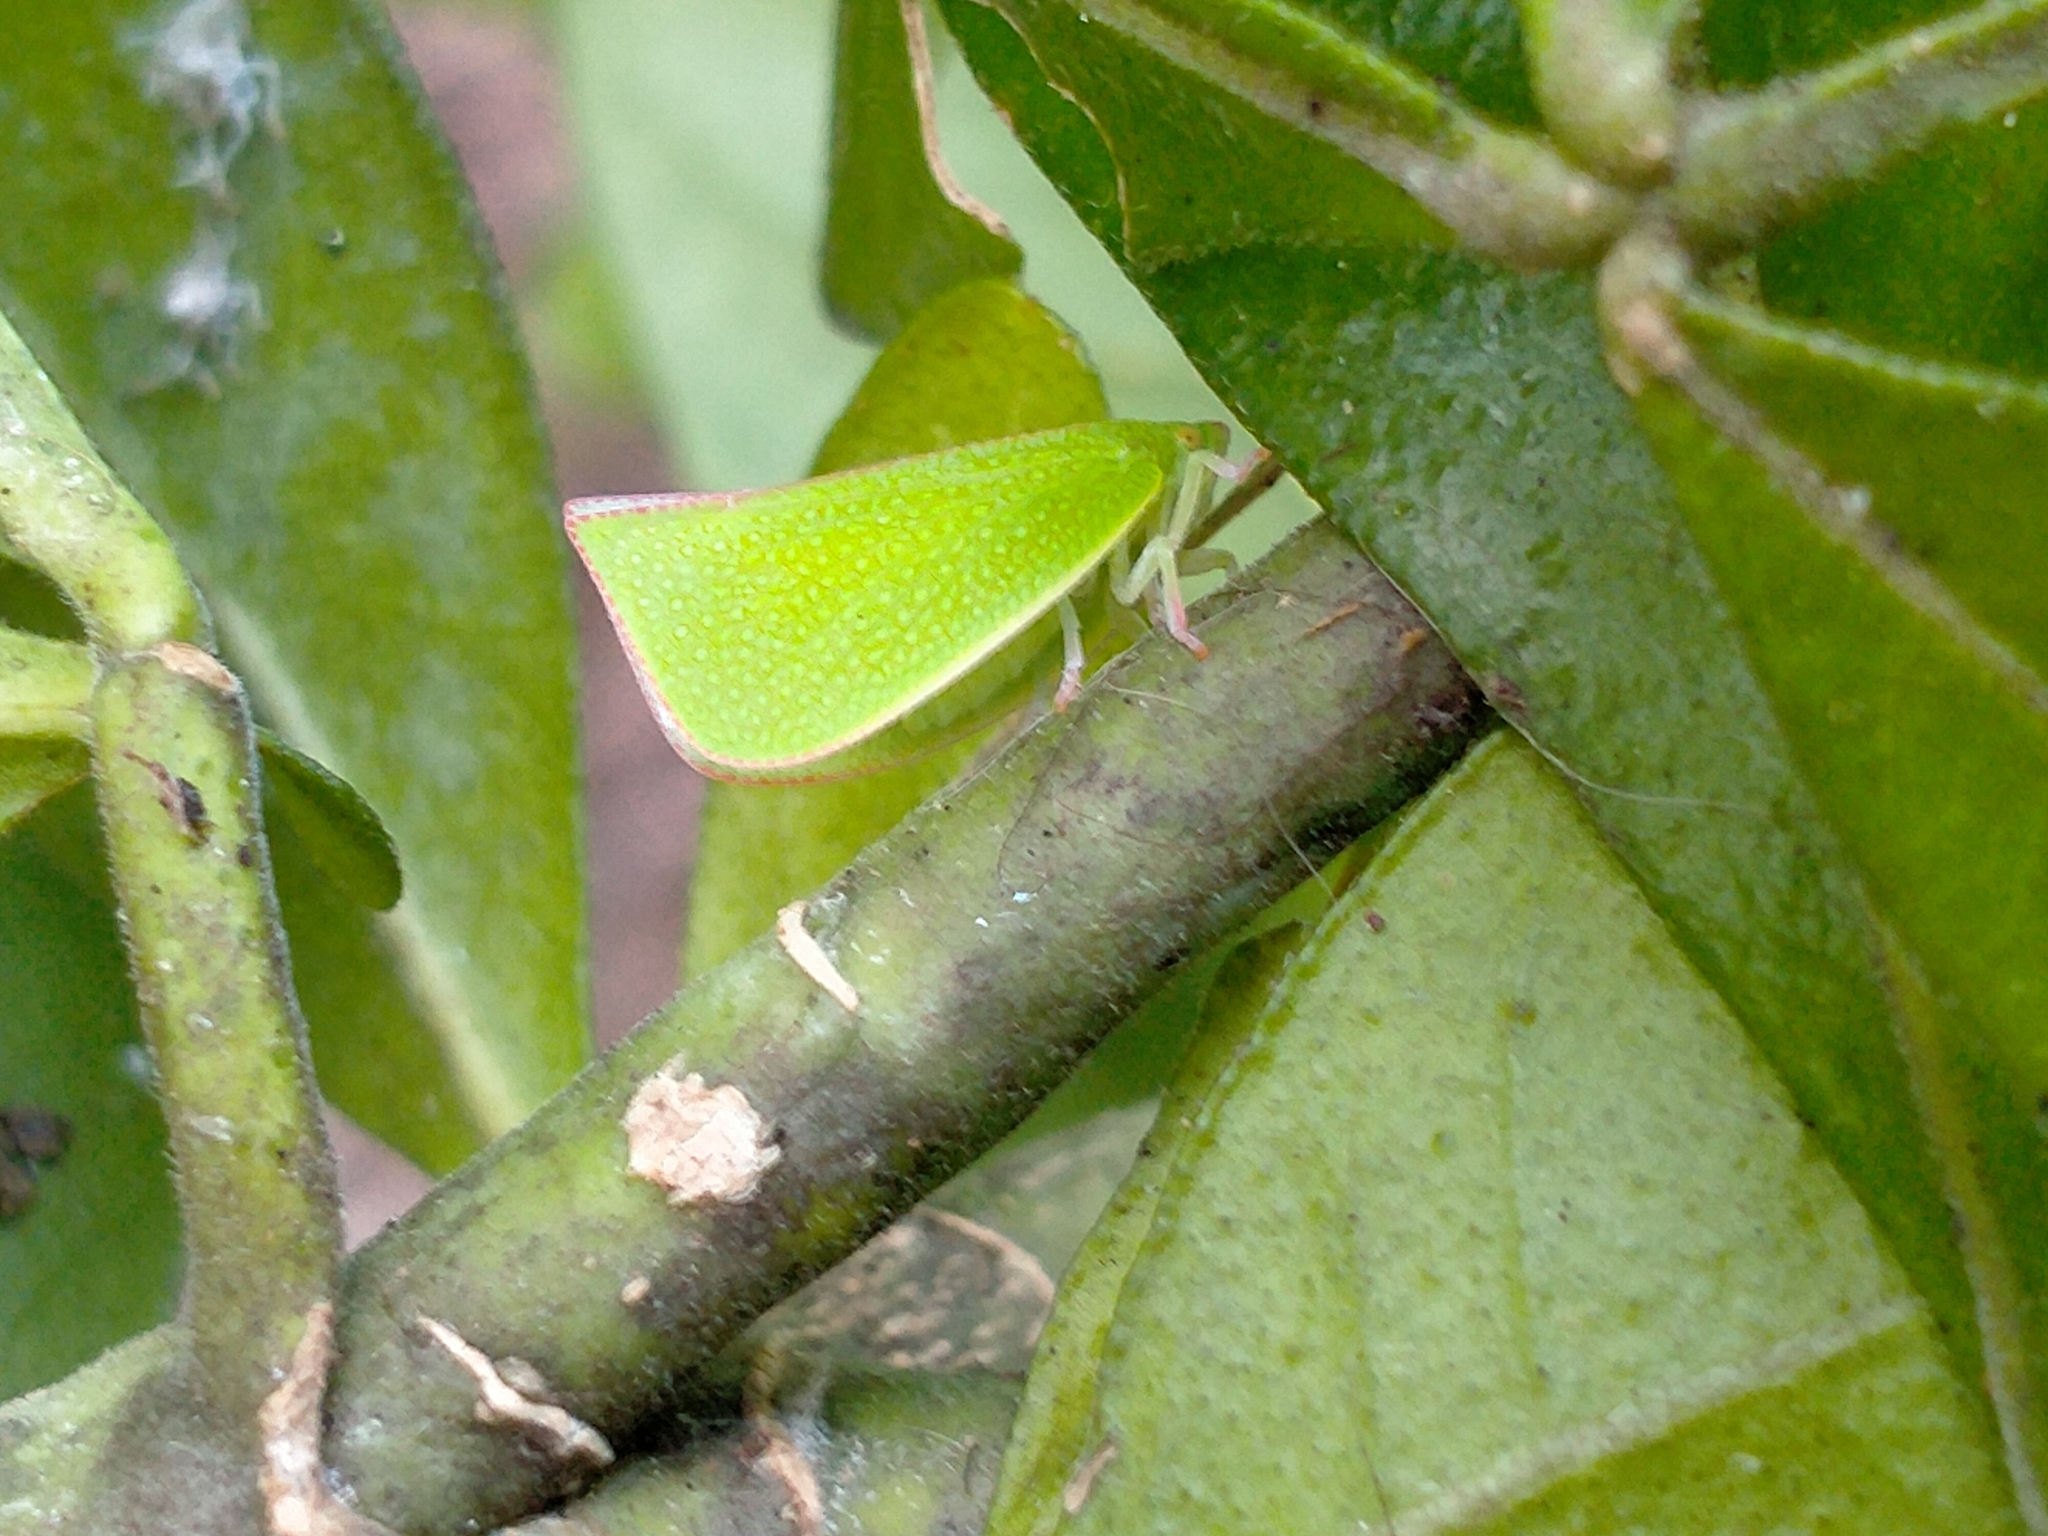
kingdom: Animalia
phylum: Arthropoda
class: Insecta
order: Hemiptera
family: Flatidae
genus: Siphanta
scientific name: Siphanta acuta
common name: Torpedo bug
